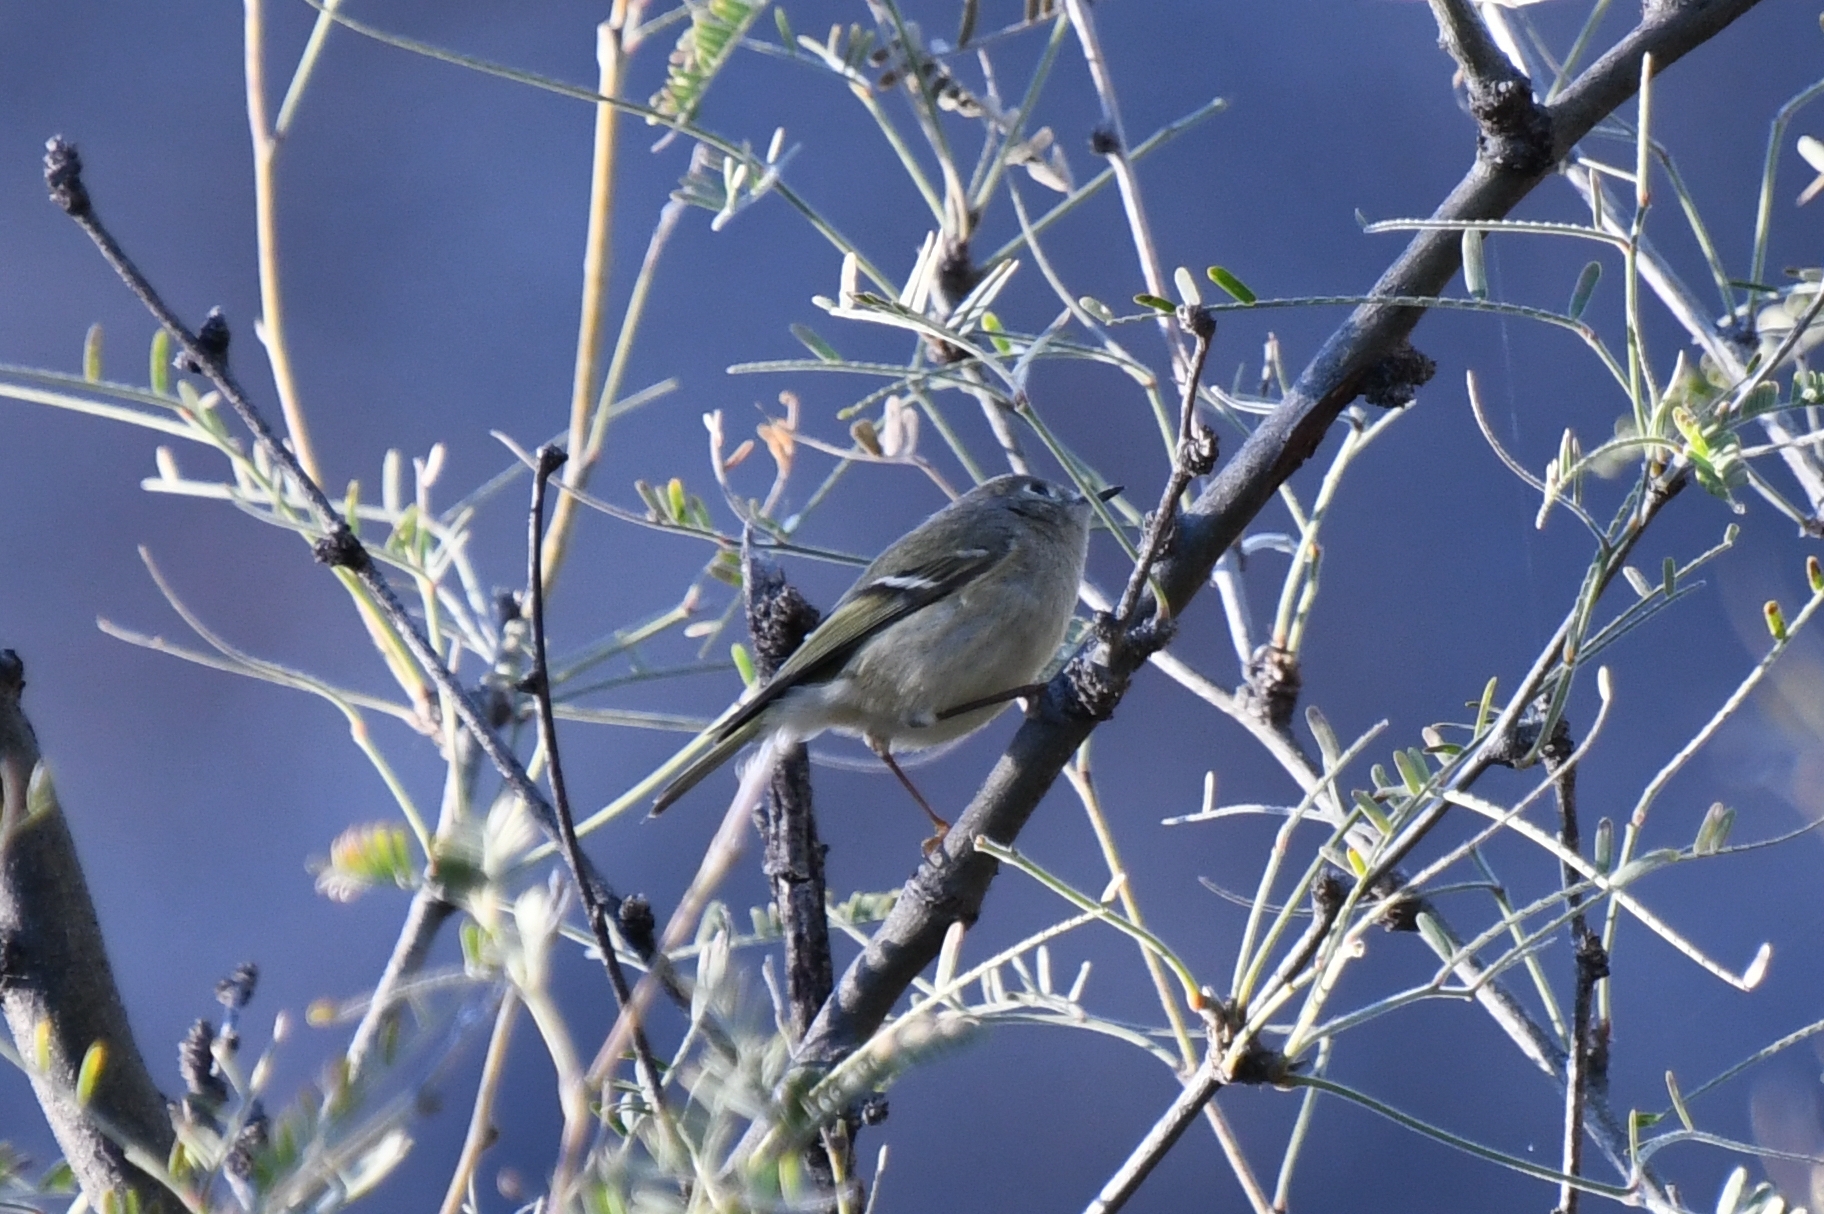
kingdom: Animalia
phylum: Chordata
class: Aves
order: Passeriformes
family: Regulidae
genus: Regulus
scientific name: Regulus calendula
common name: Ruby-crowned kinglet
